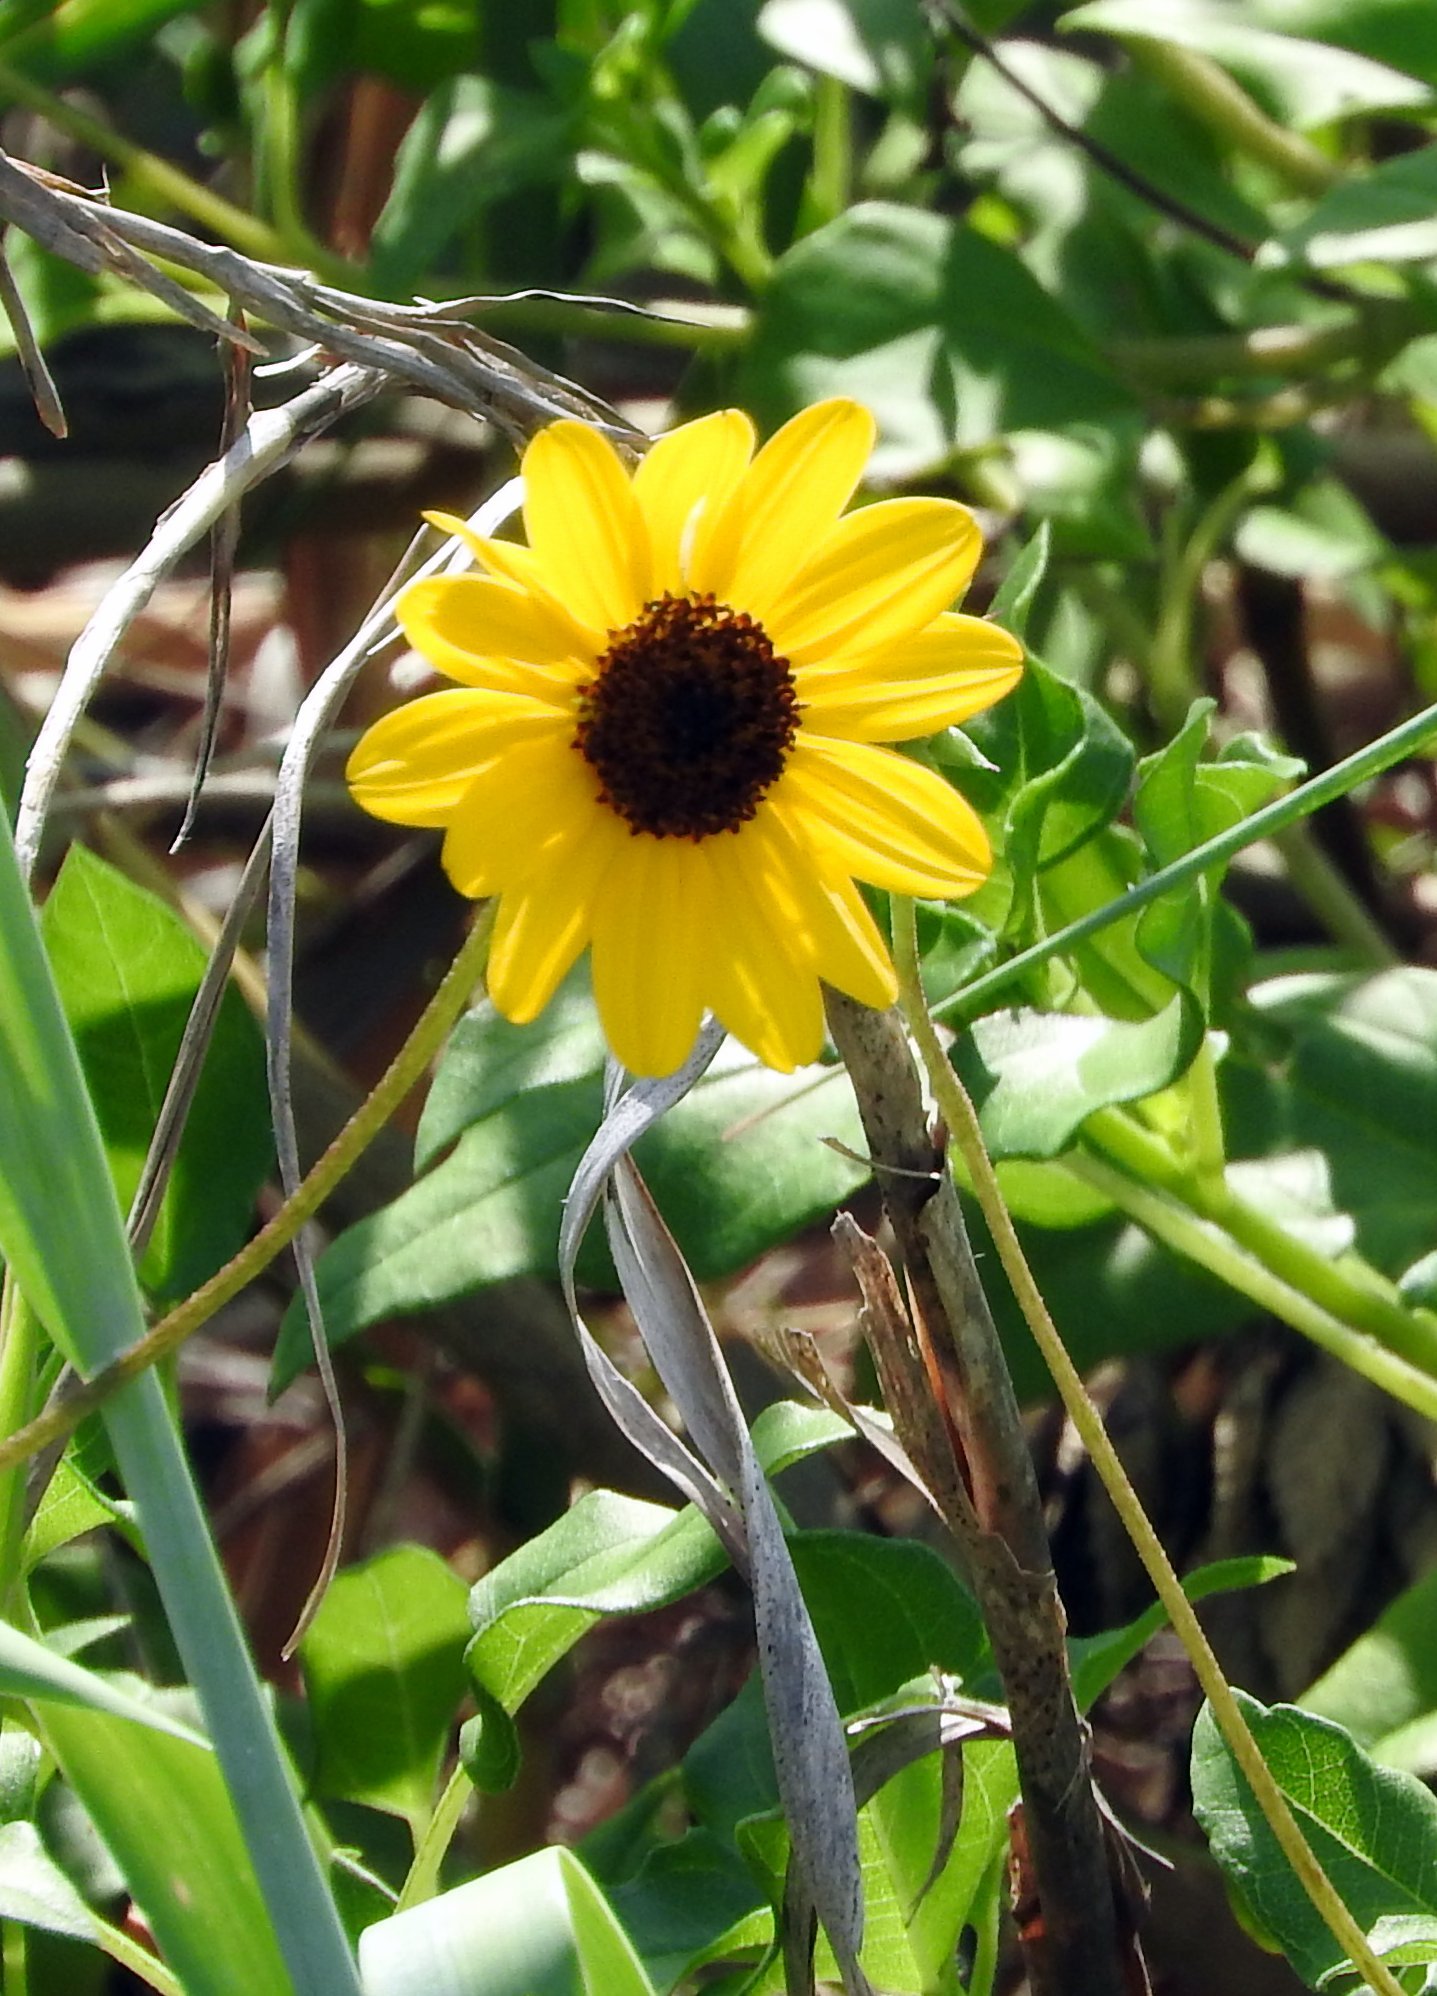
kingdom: Plantae
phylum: Tracheophyta
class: Magnoliopsida
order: Asterales
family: Asteraceae
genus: Helianthus
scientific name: Helianthus debilis
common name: Weak sunflower
